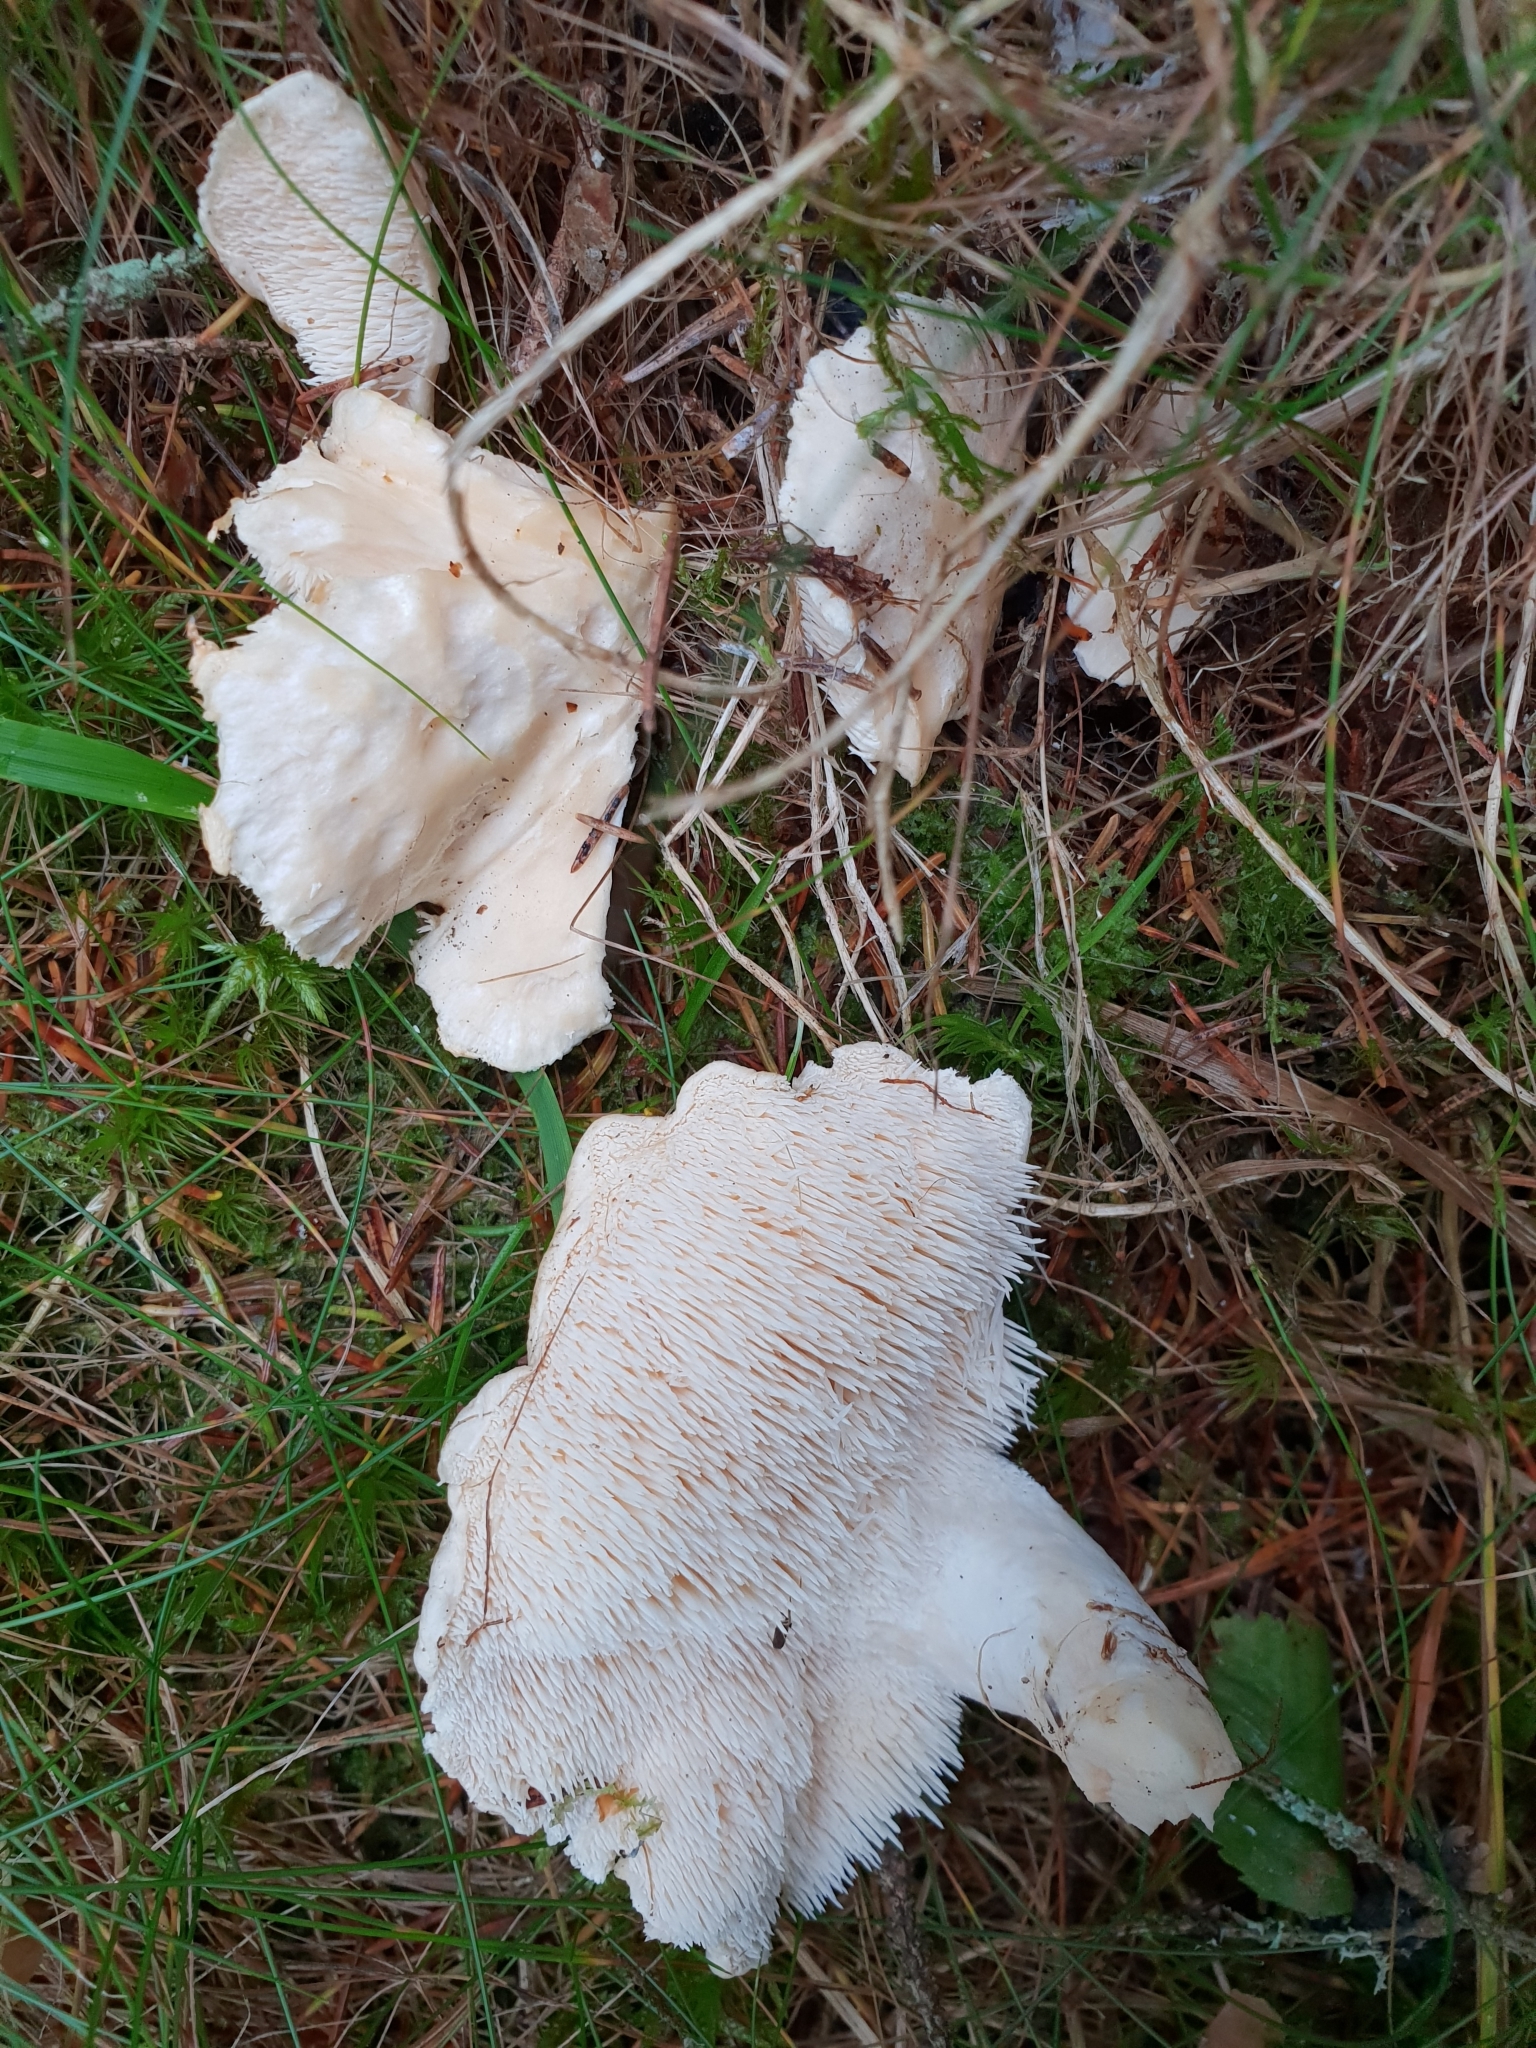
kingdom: Fungi
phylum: Basidiomycota
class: Agaricomycetes
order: Cantharellales
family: Hydnaceae
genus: Hydnum
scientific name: Hydnum repandum
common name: Wood hedgehog
